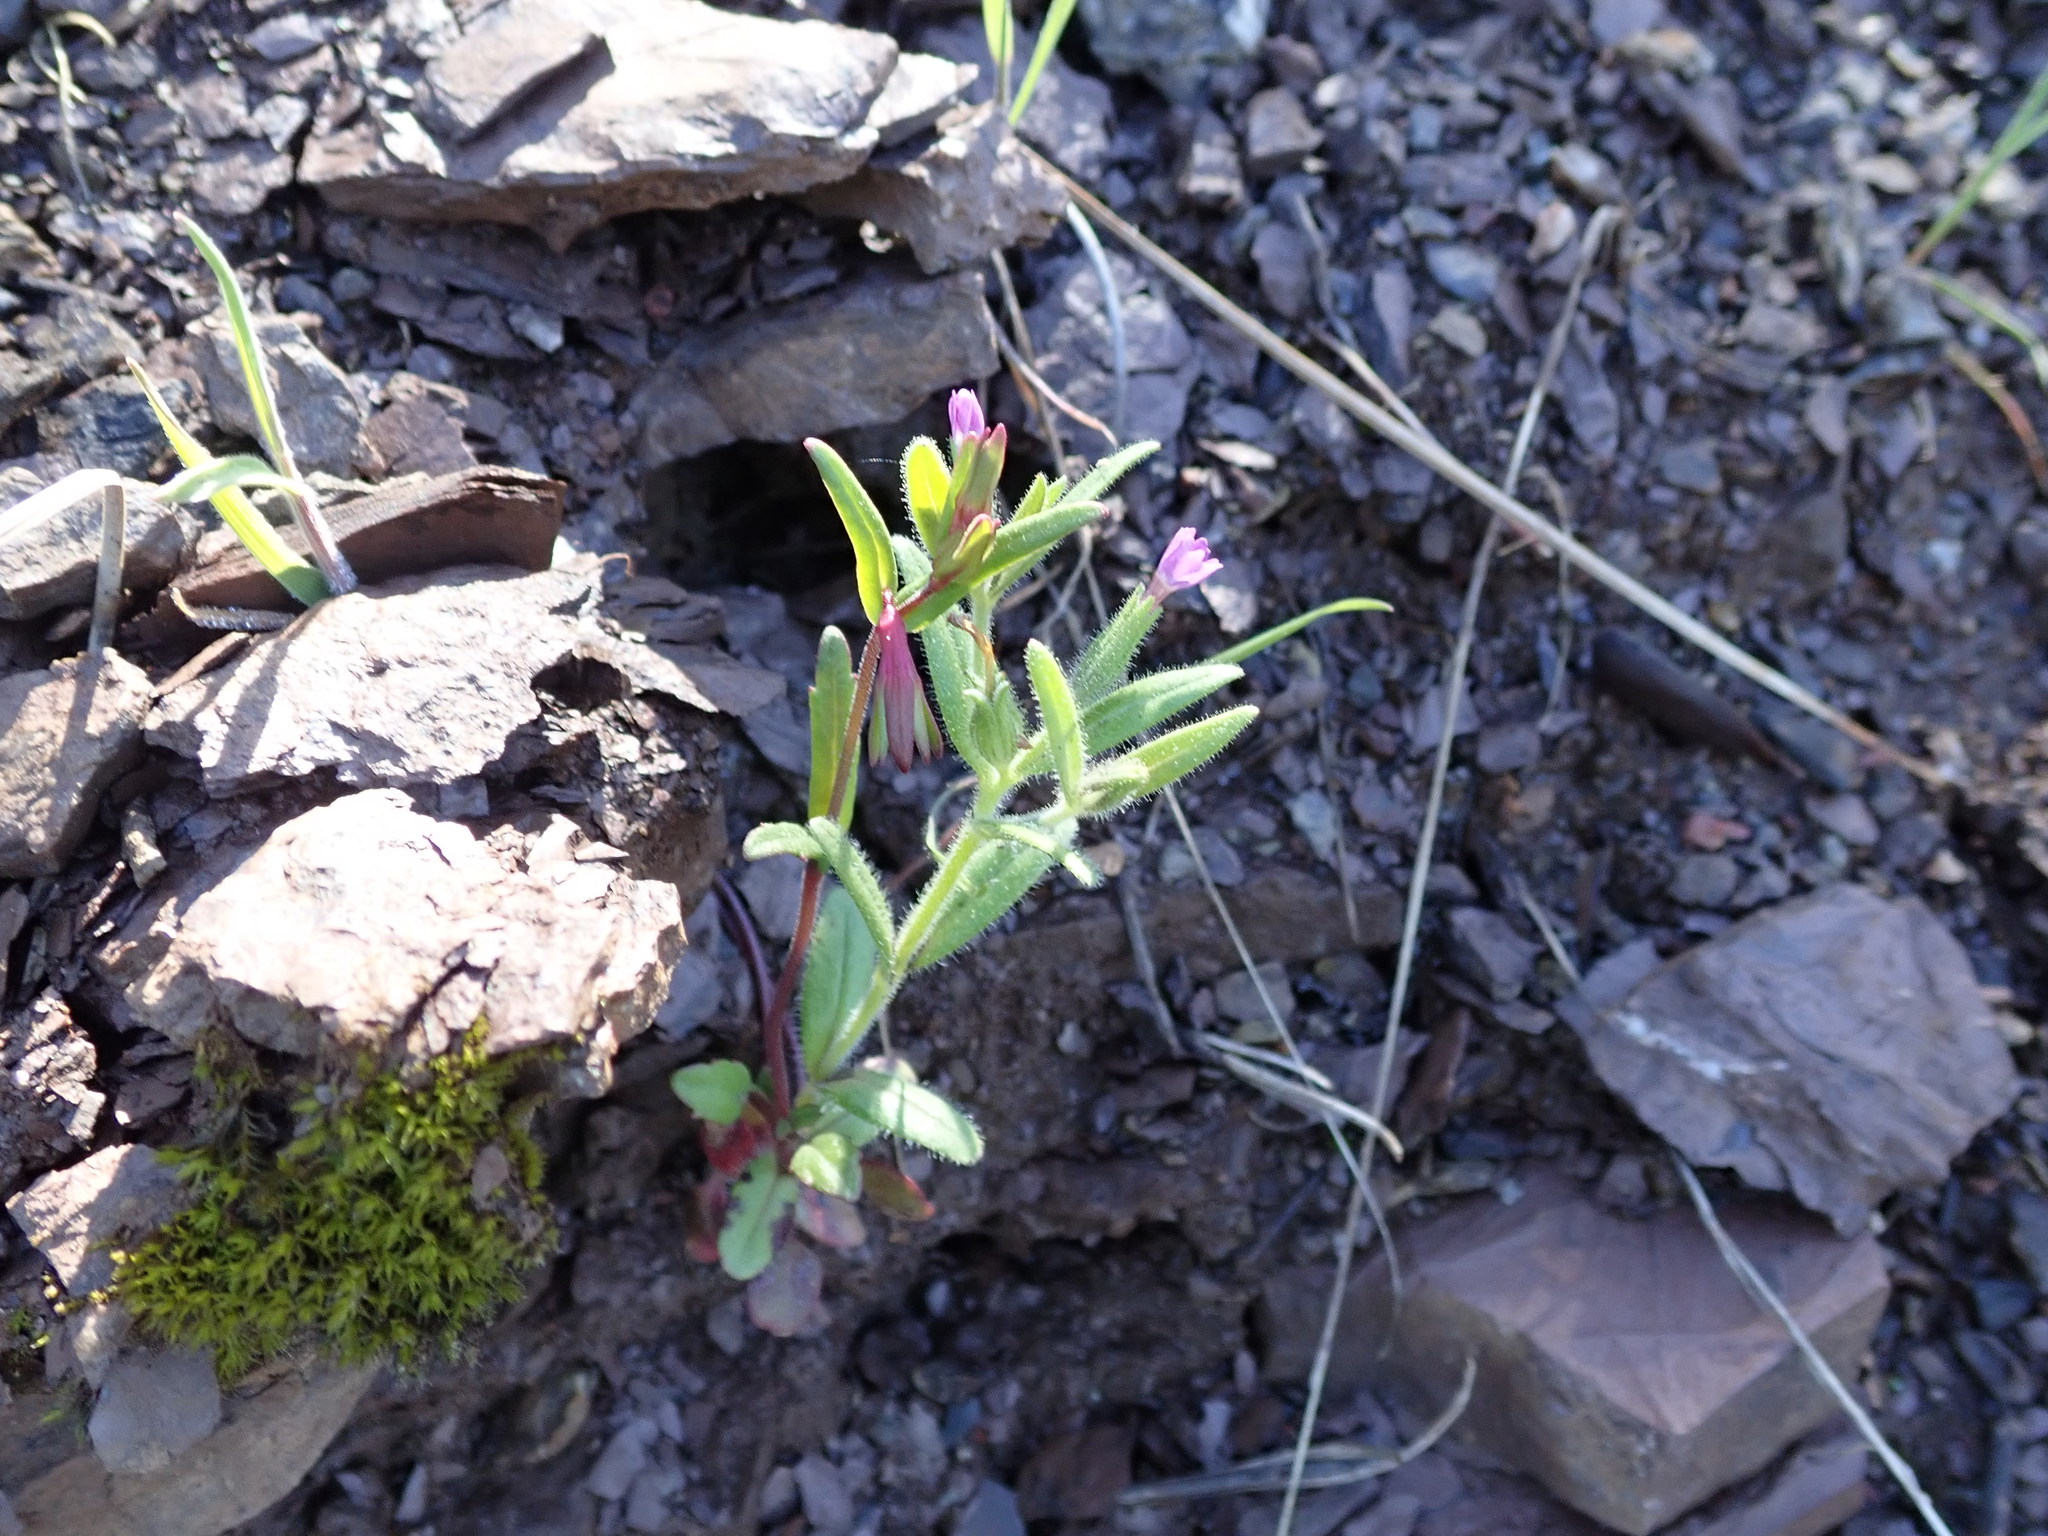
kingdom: Plantae
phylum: Tracheophyta
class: Magnoliopsida
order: Ericales
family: Polemoniaceae
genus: Phlox
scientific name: Phlox gracilis
